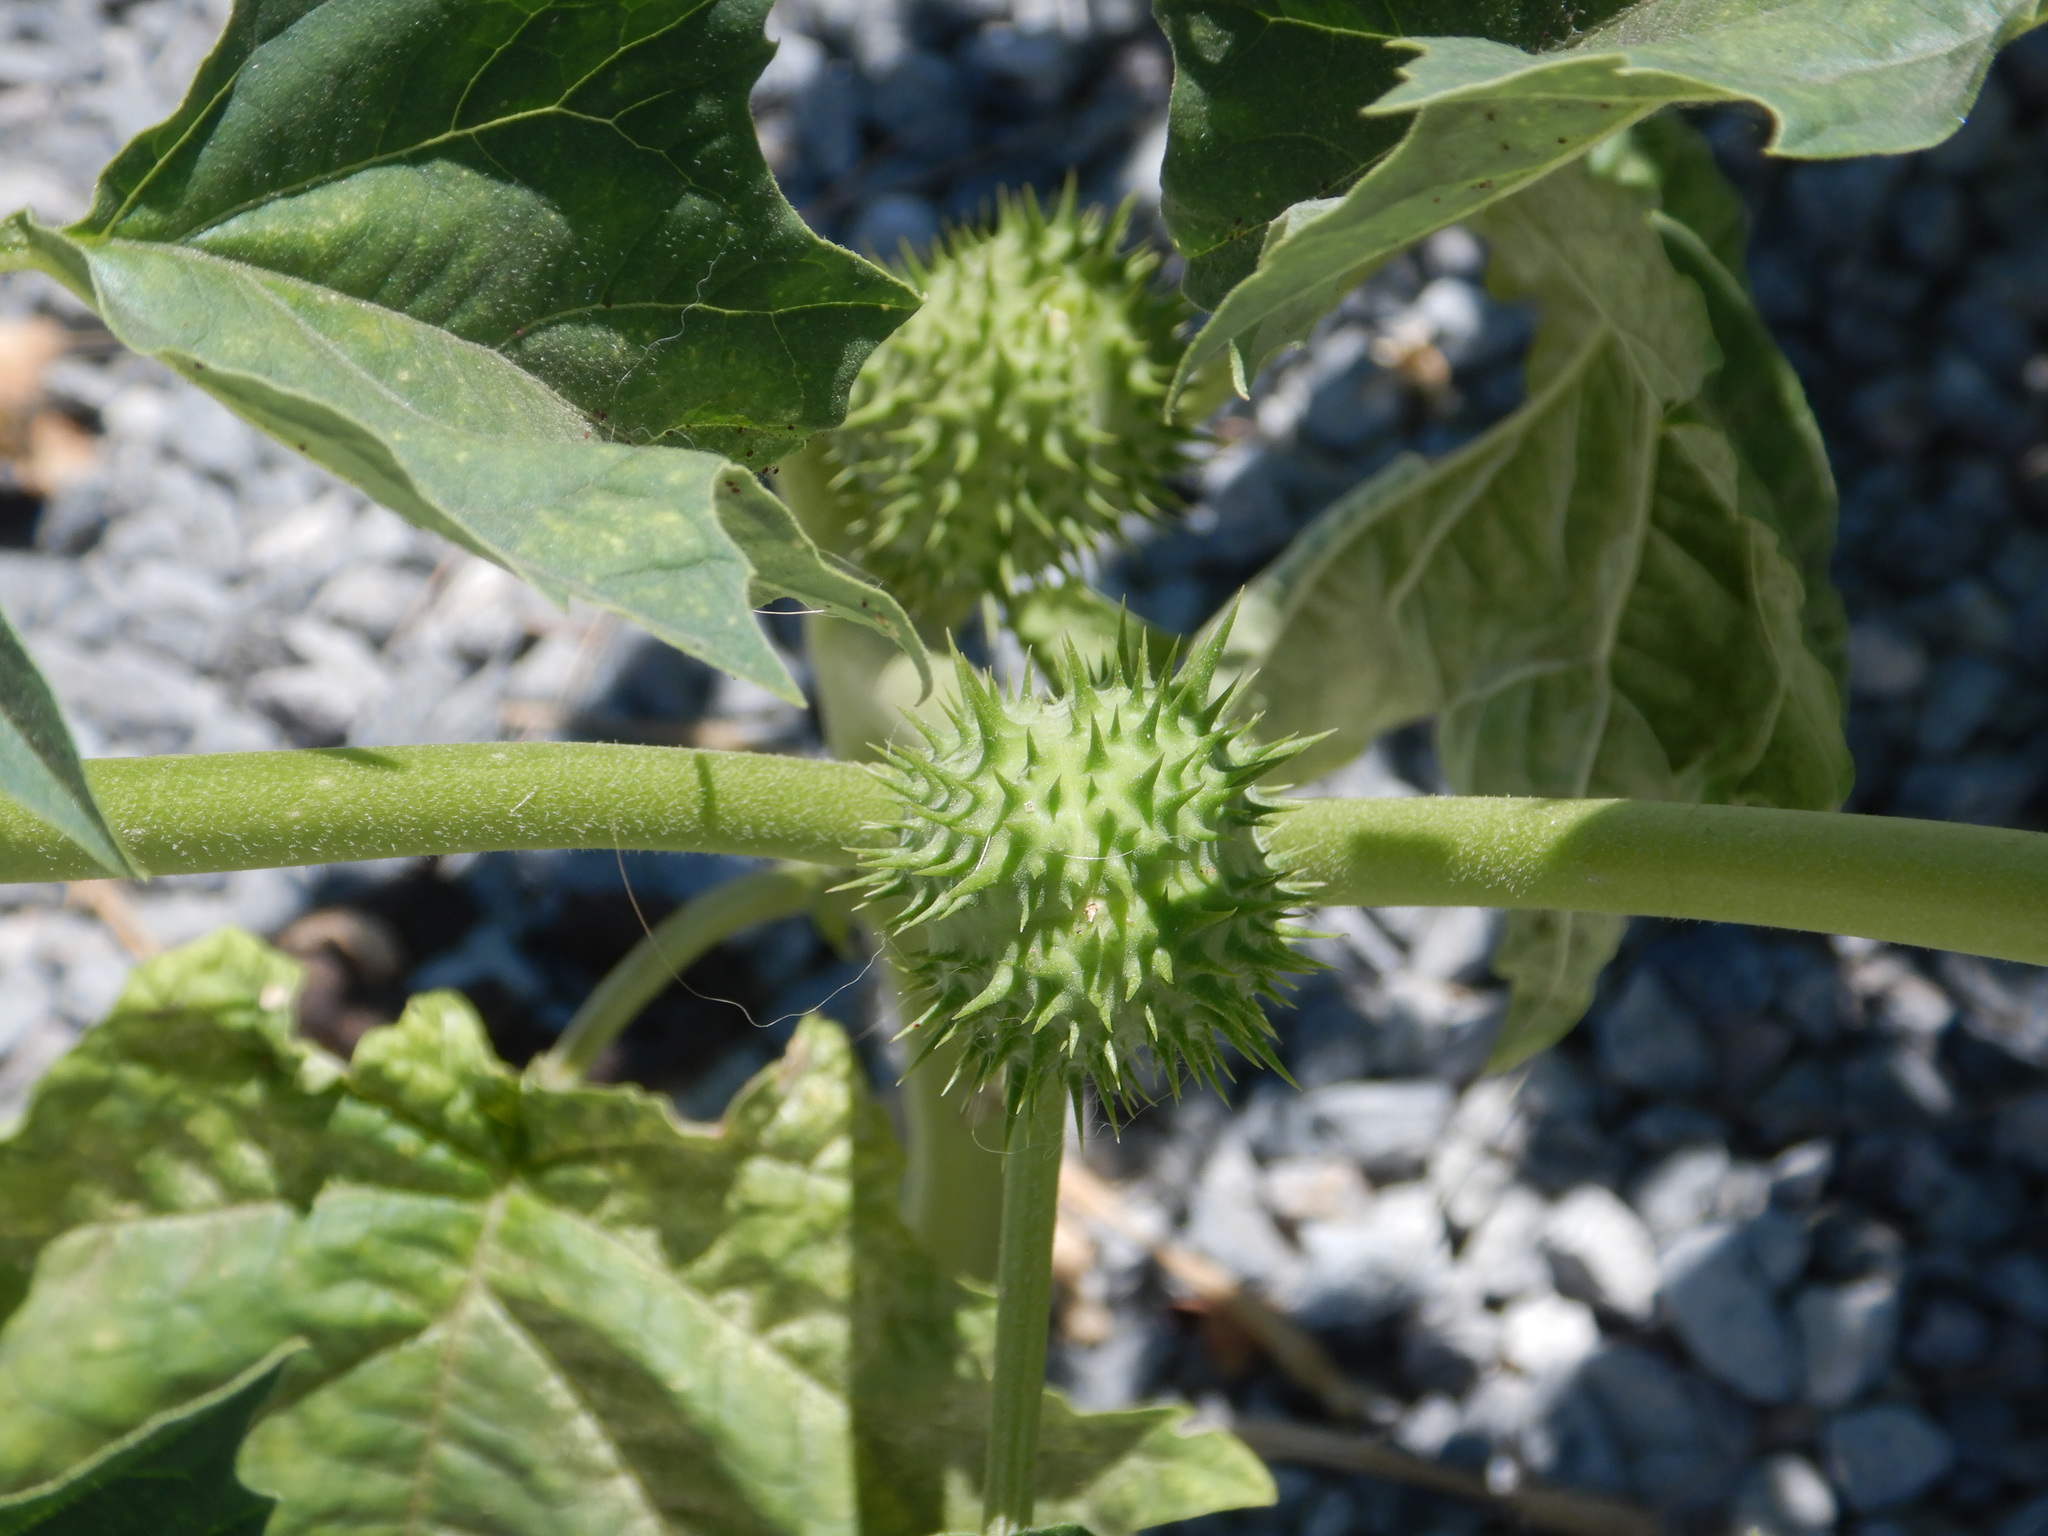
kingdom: Plantae
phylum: Tracheophyta
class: Magnoliopsida
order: Solanales
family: Solanaceae
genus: Datura
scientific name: Datura stramonium
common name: Thorn-apple
